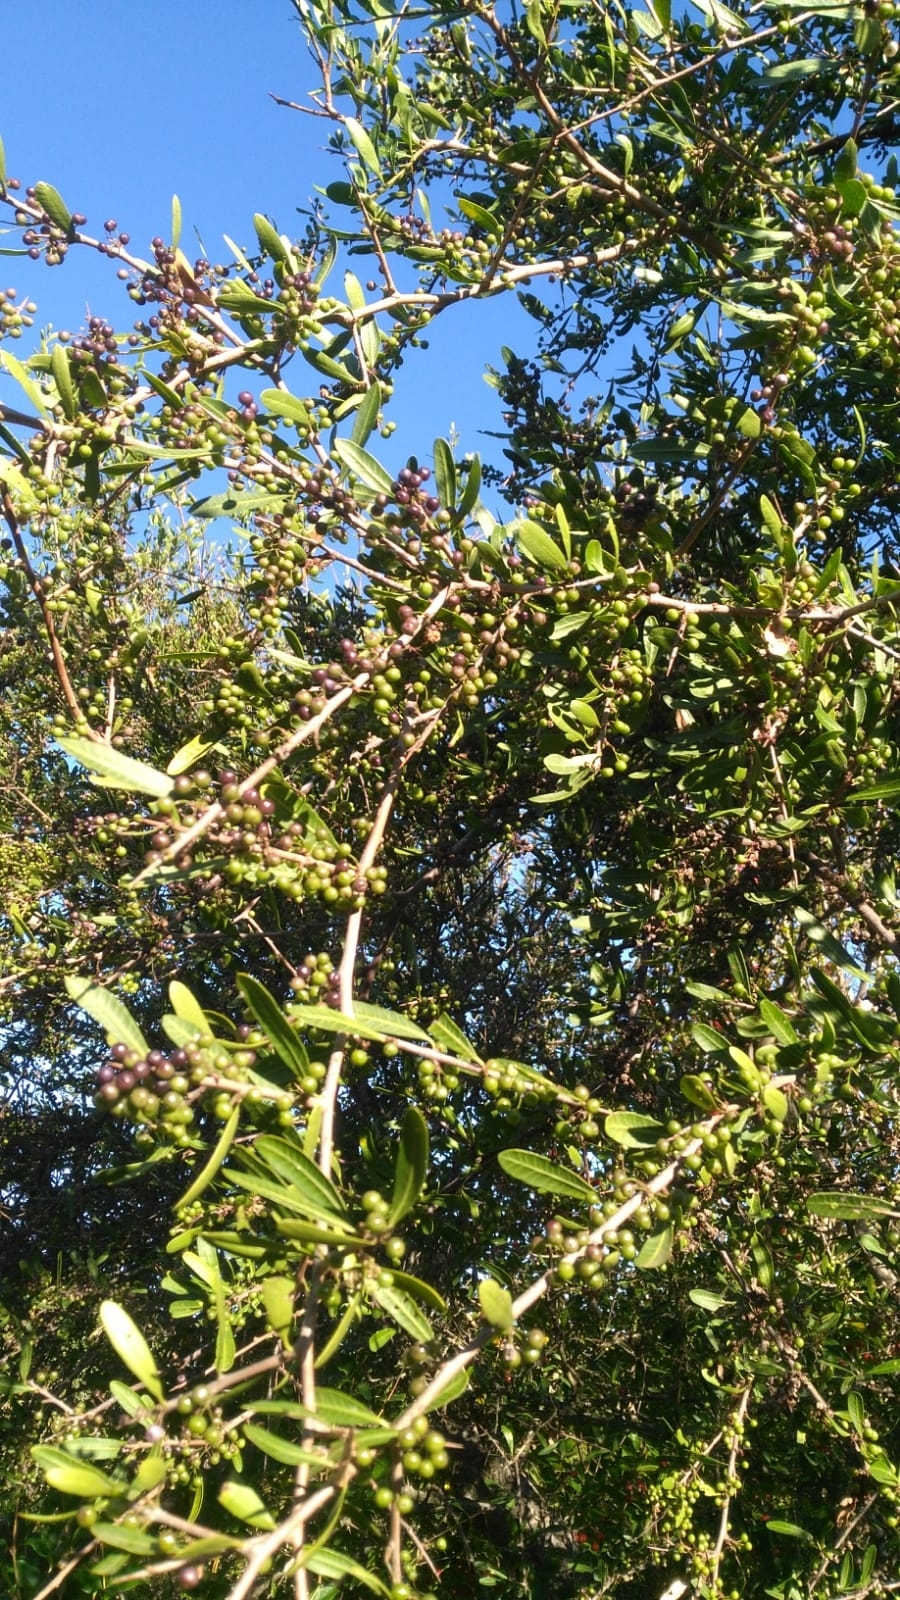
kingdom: Plantae
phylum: Tracheophyta
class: Magnoliopsida
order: Sapindales
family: Anacardiaceae
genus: Schinus
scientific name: Schinus longifolia
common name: Longleaf peppertree
